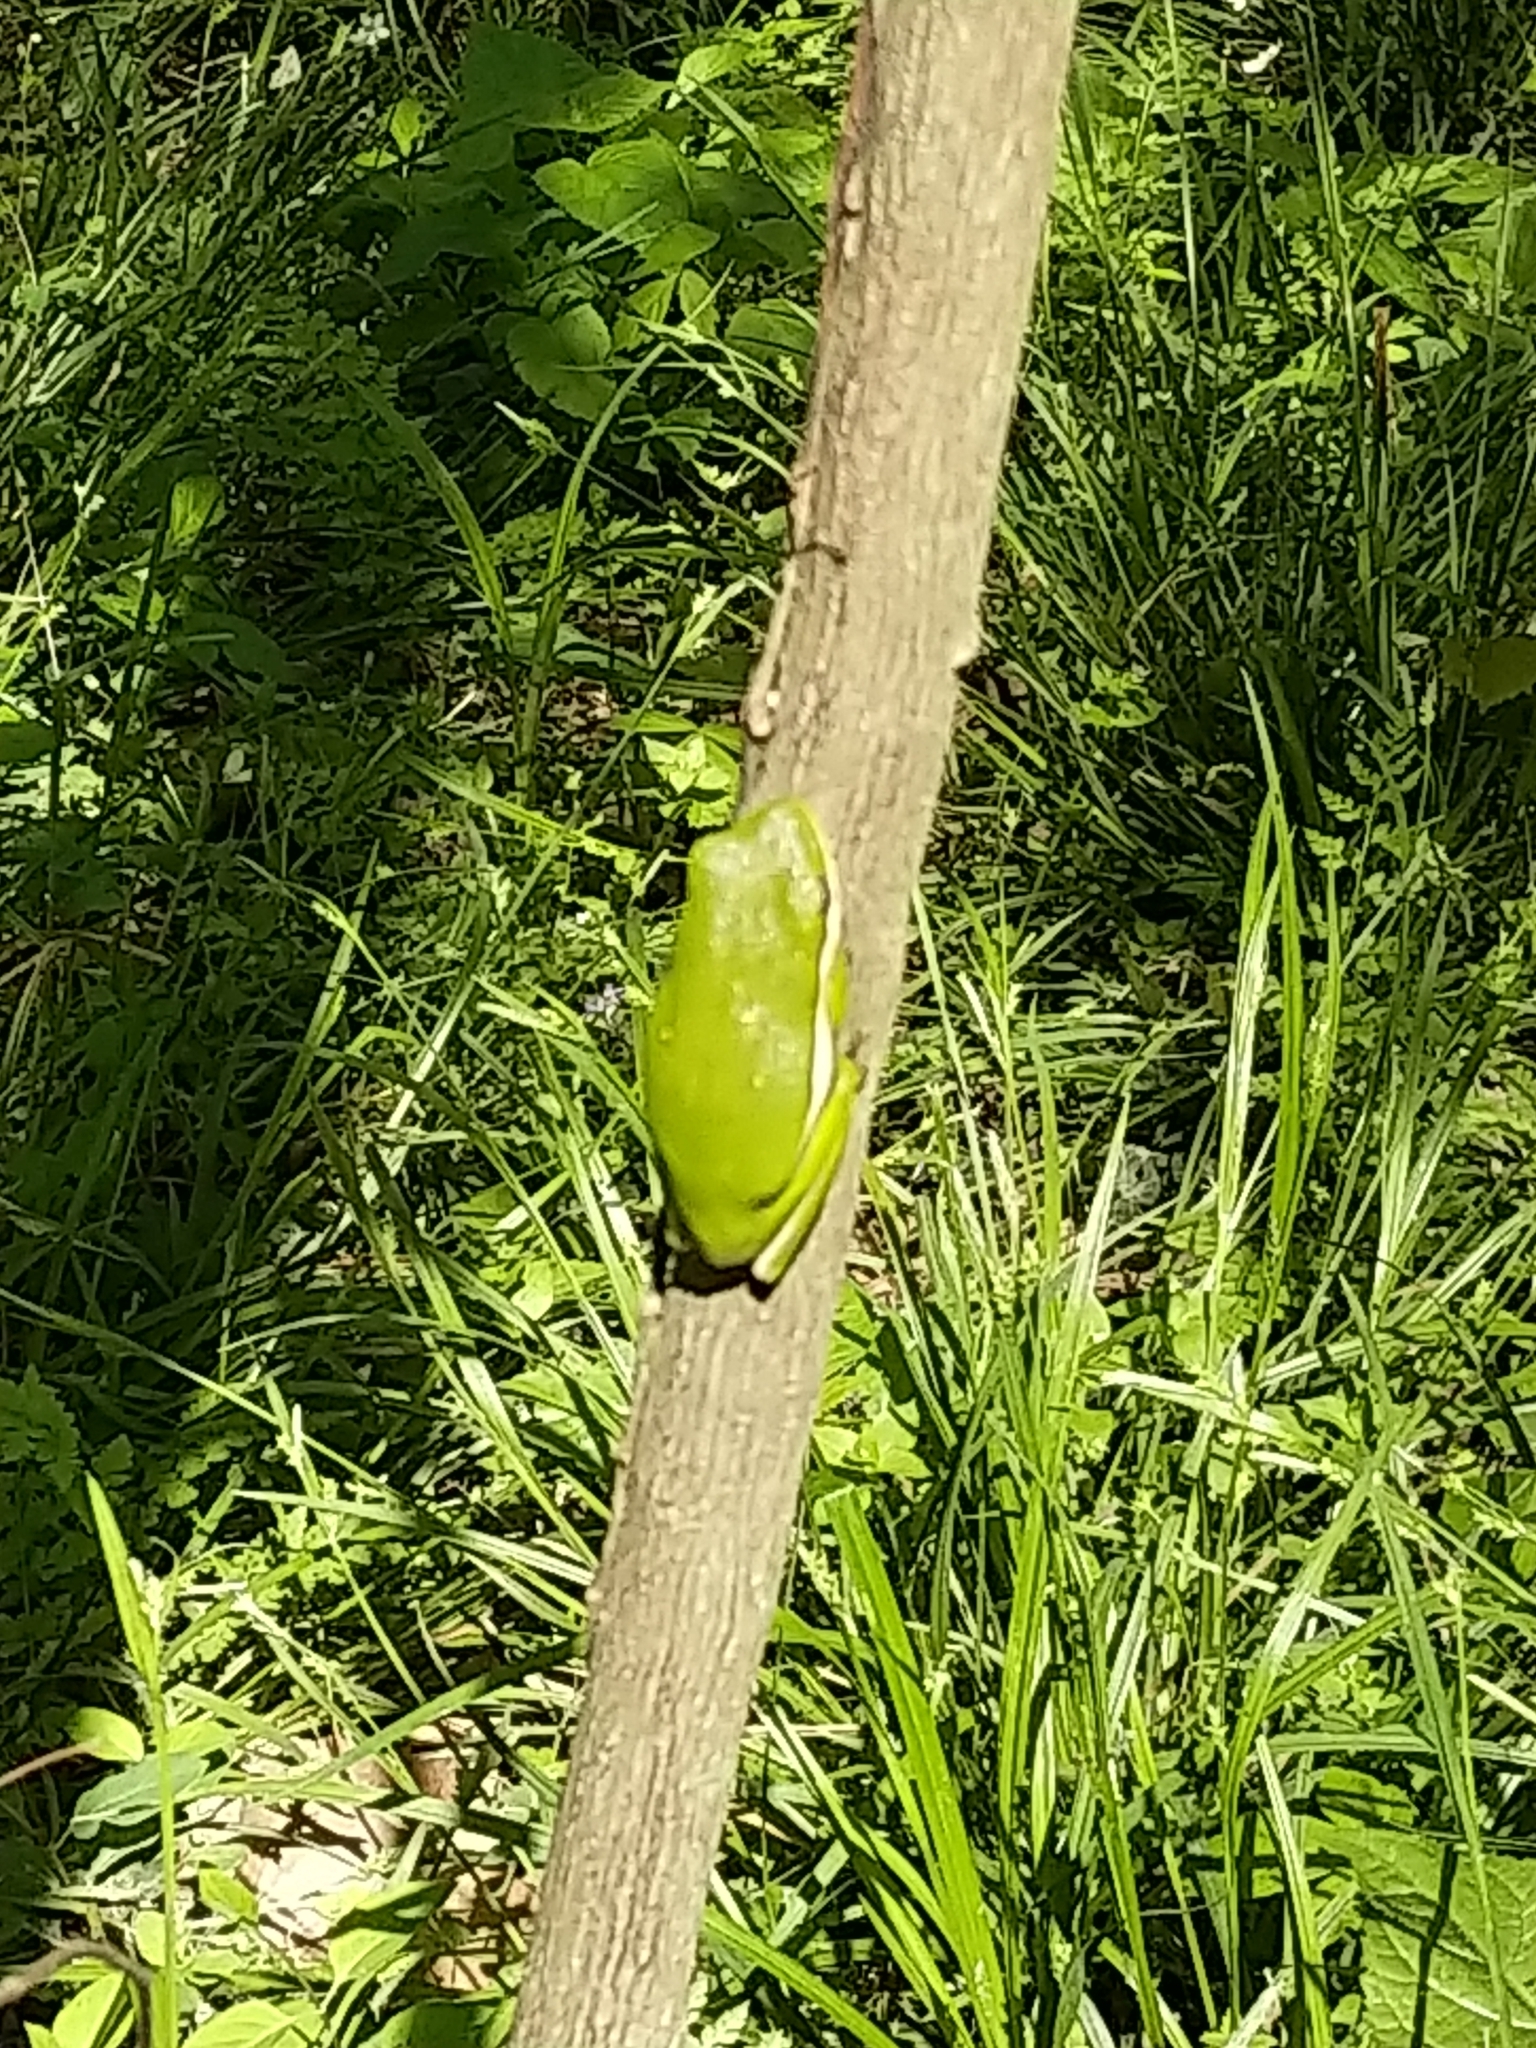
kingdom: Animalia
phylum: Chordata
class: Amphibia
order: Anura
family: Hylidae
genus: Dryophytes
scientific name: Dryophytes cinereus
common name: Green treefrog
